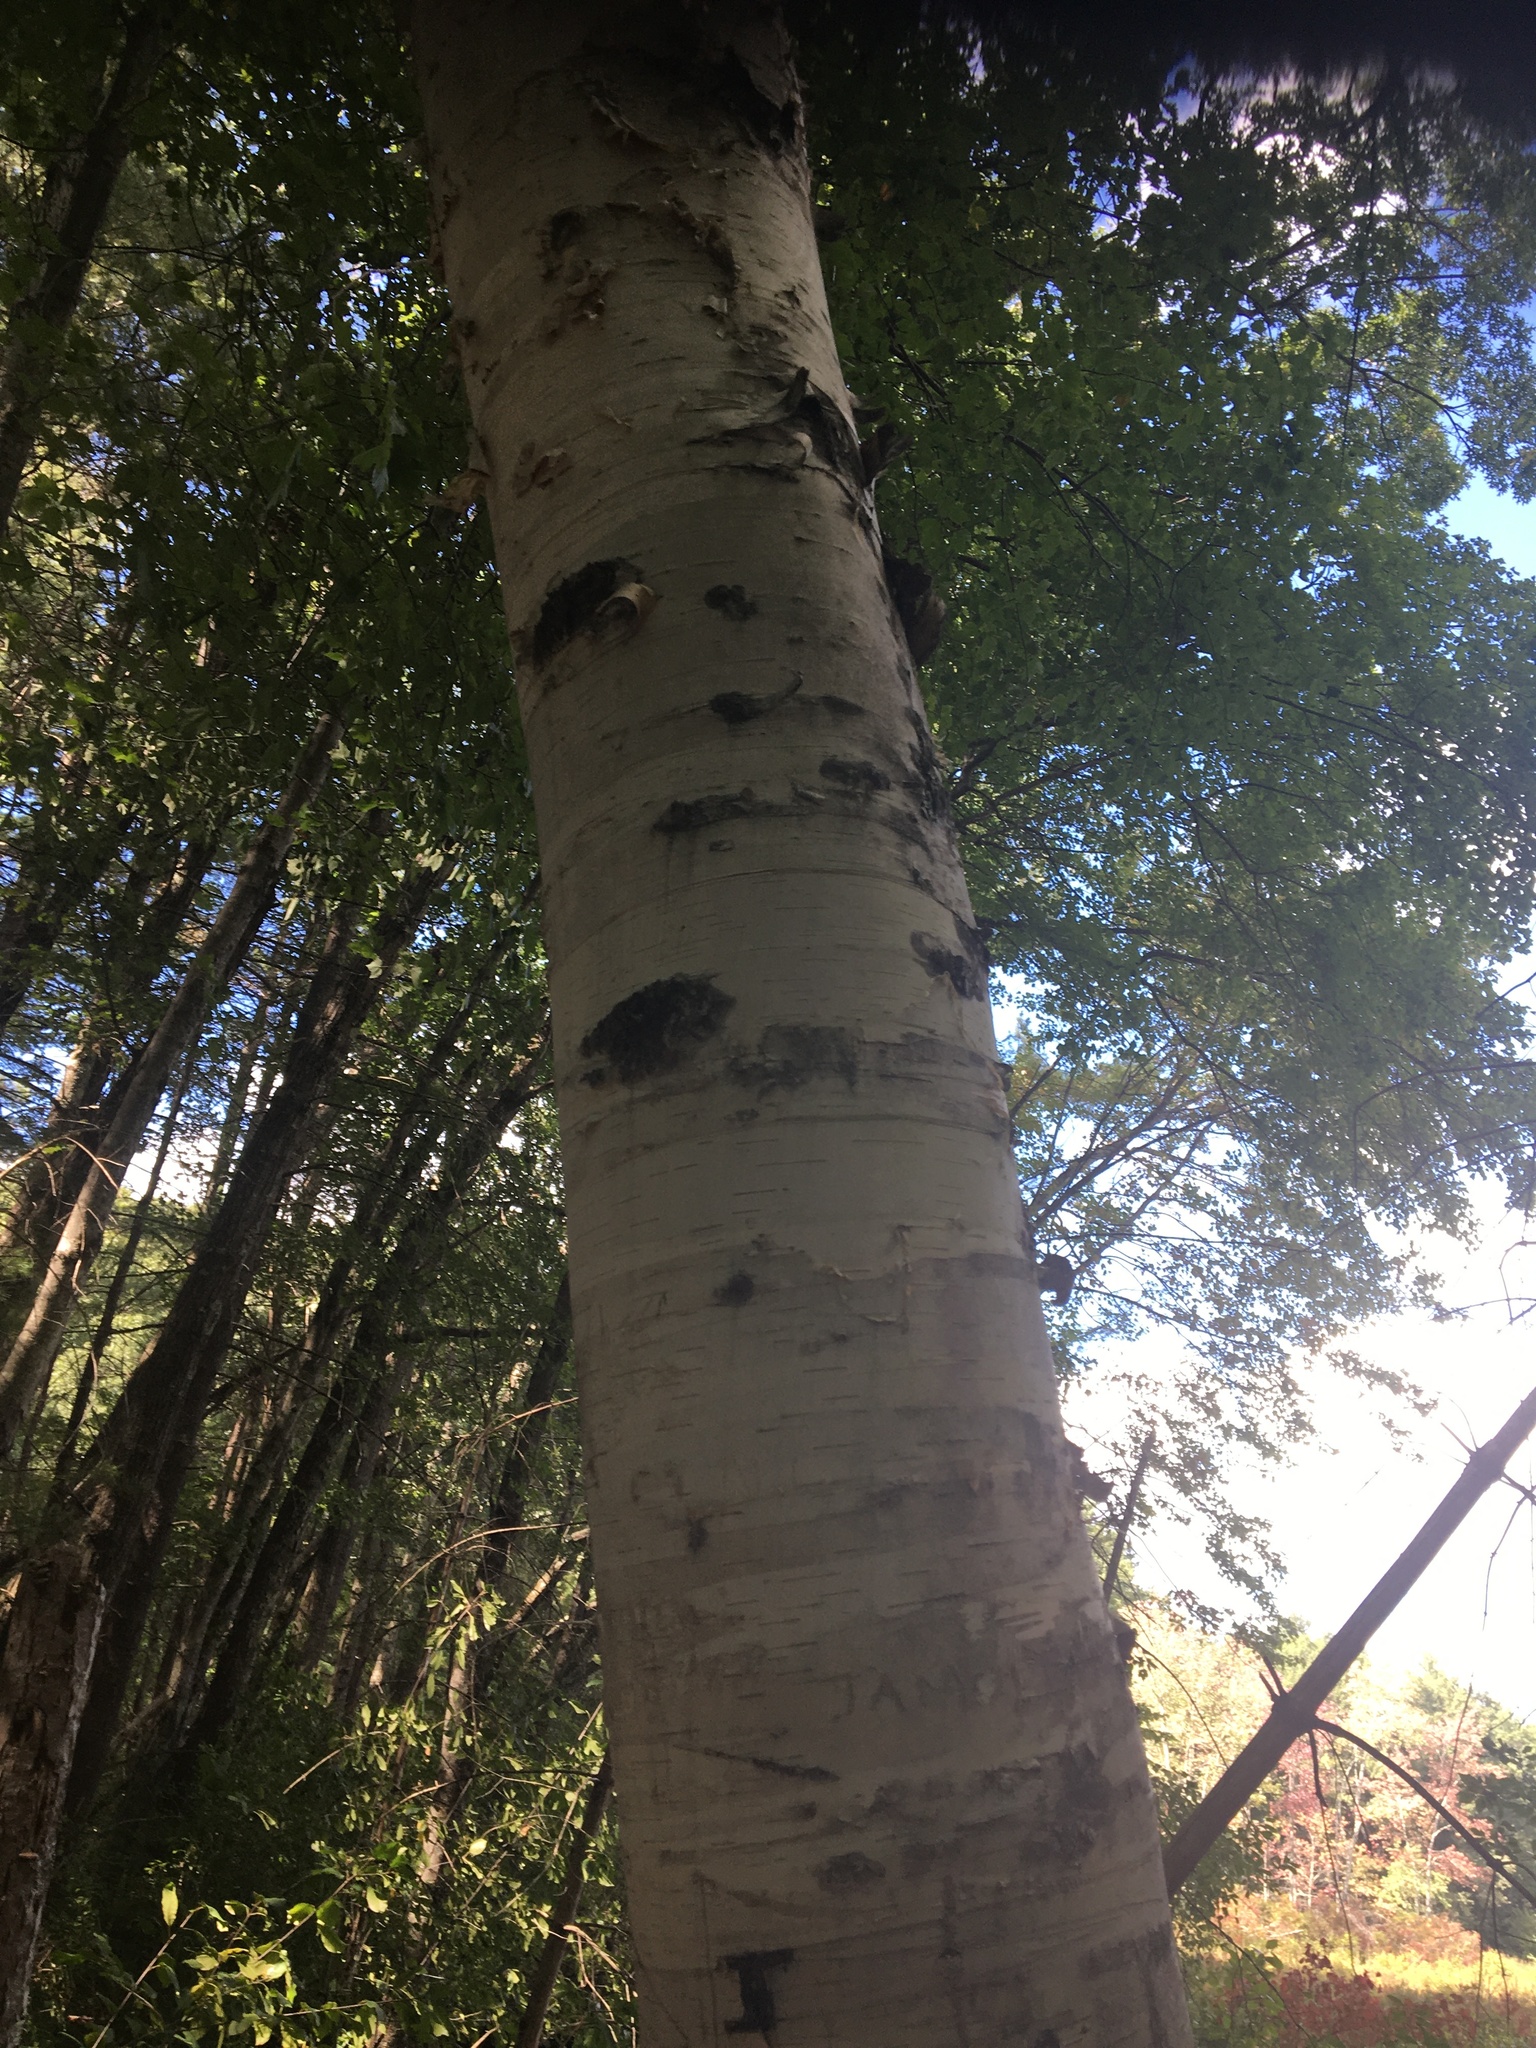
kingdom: Plantae
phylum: Tracheophyta
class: Magnoliopsida
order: Fagales
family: Betulaceae
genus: Betula
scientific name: Betula papyrifera
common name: Paper birch
